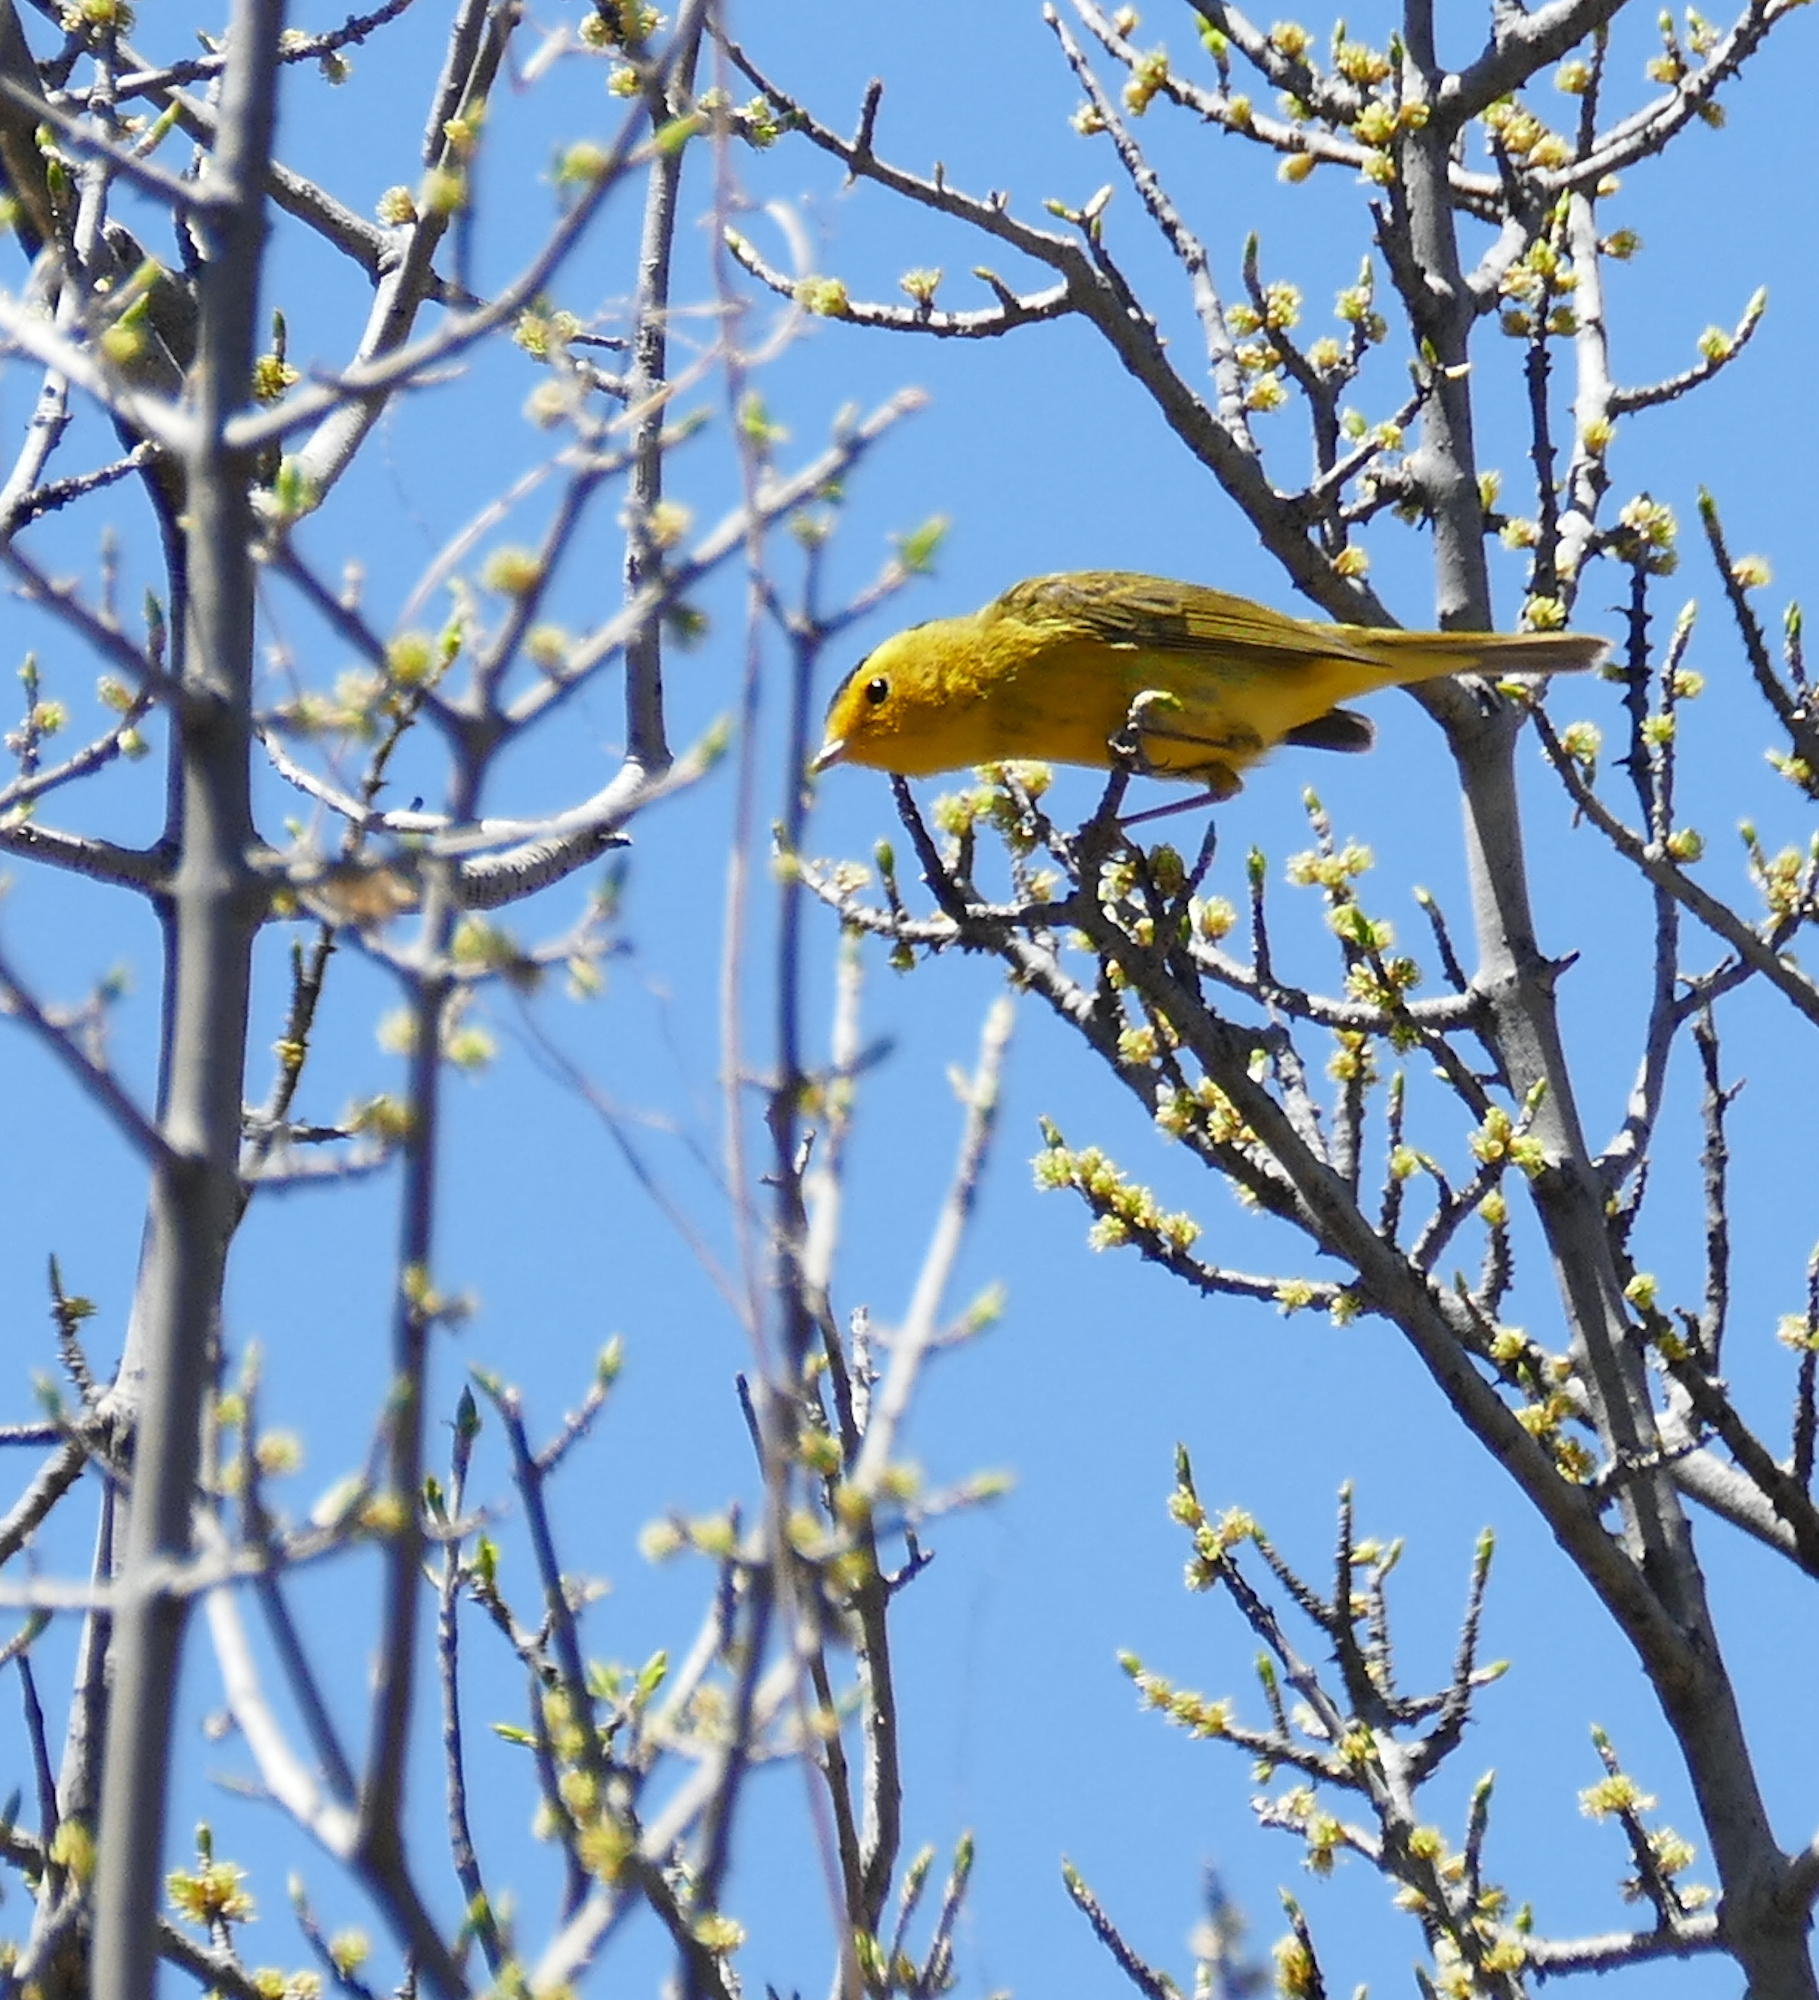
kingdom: Animalia
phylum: Chordata
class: Aves
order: Passeriformes
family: Parulidae
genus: Cardellina
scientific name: Cardellina pusilla
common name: Wilson's warbler
